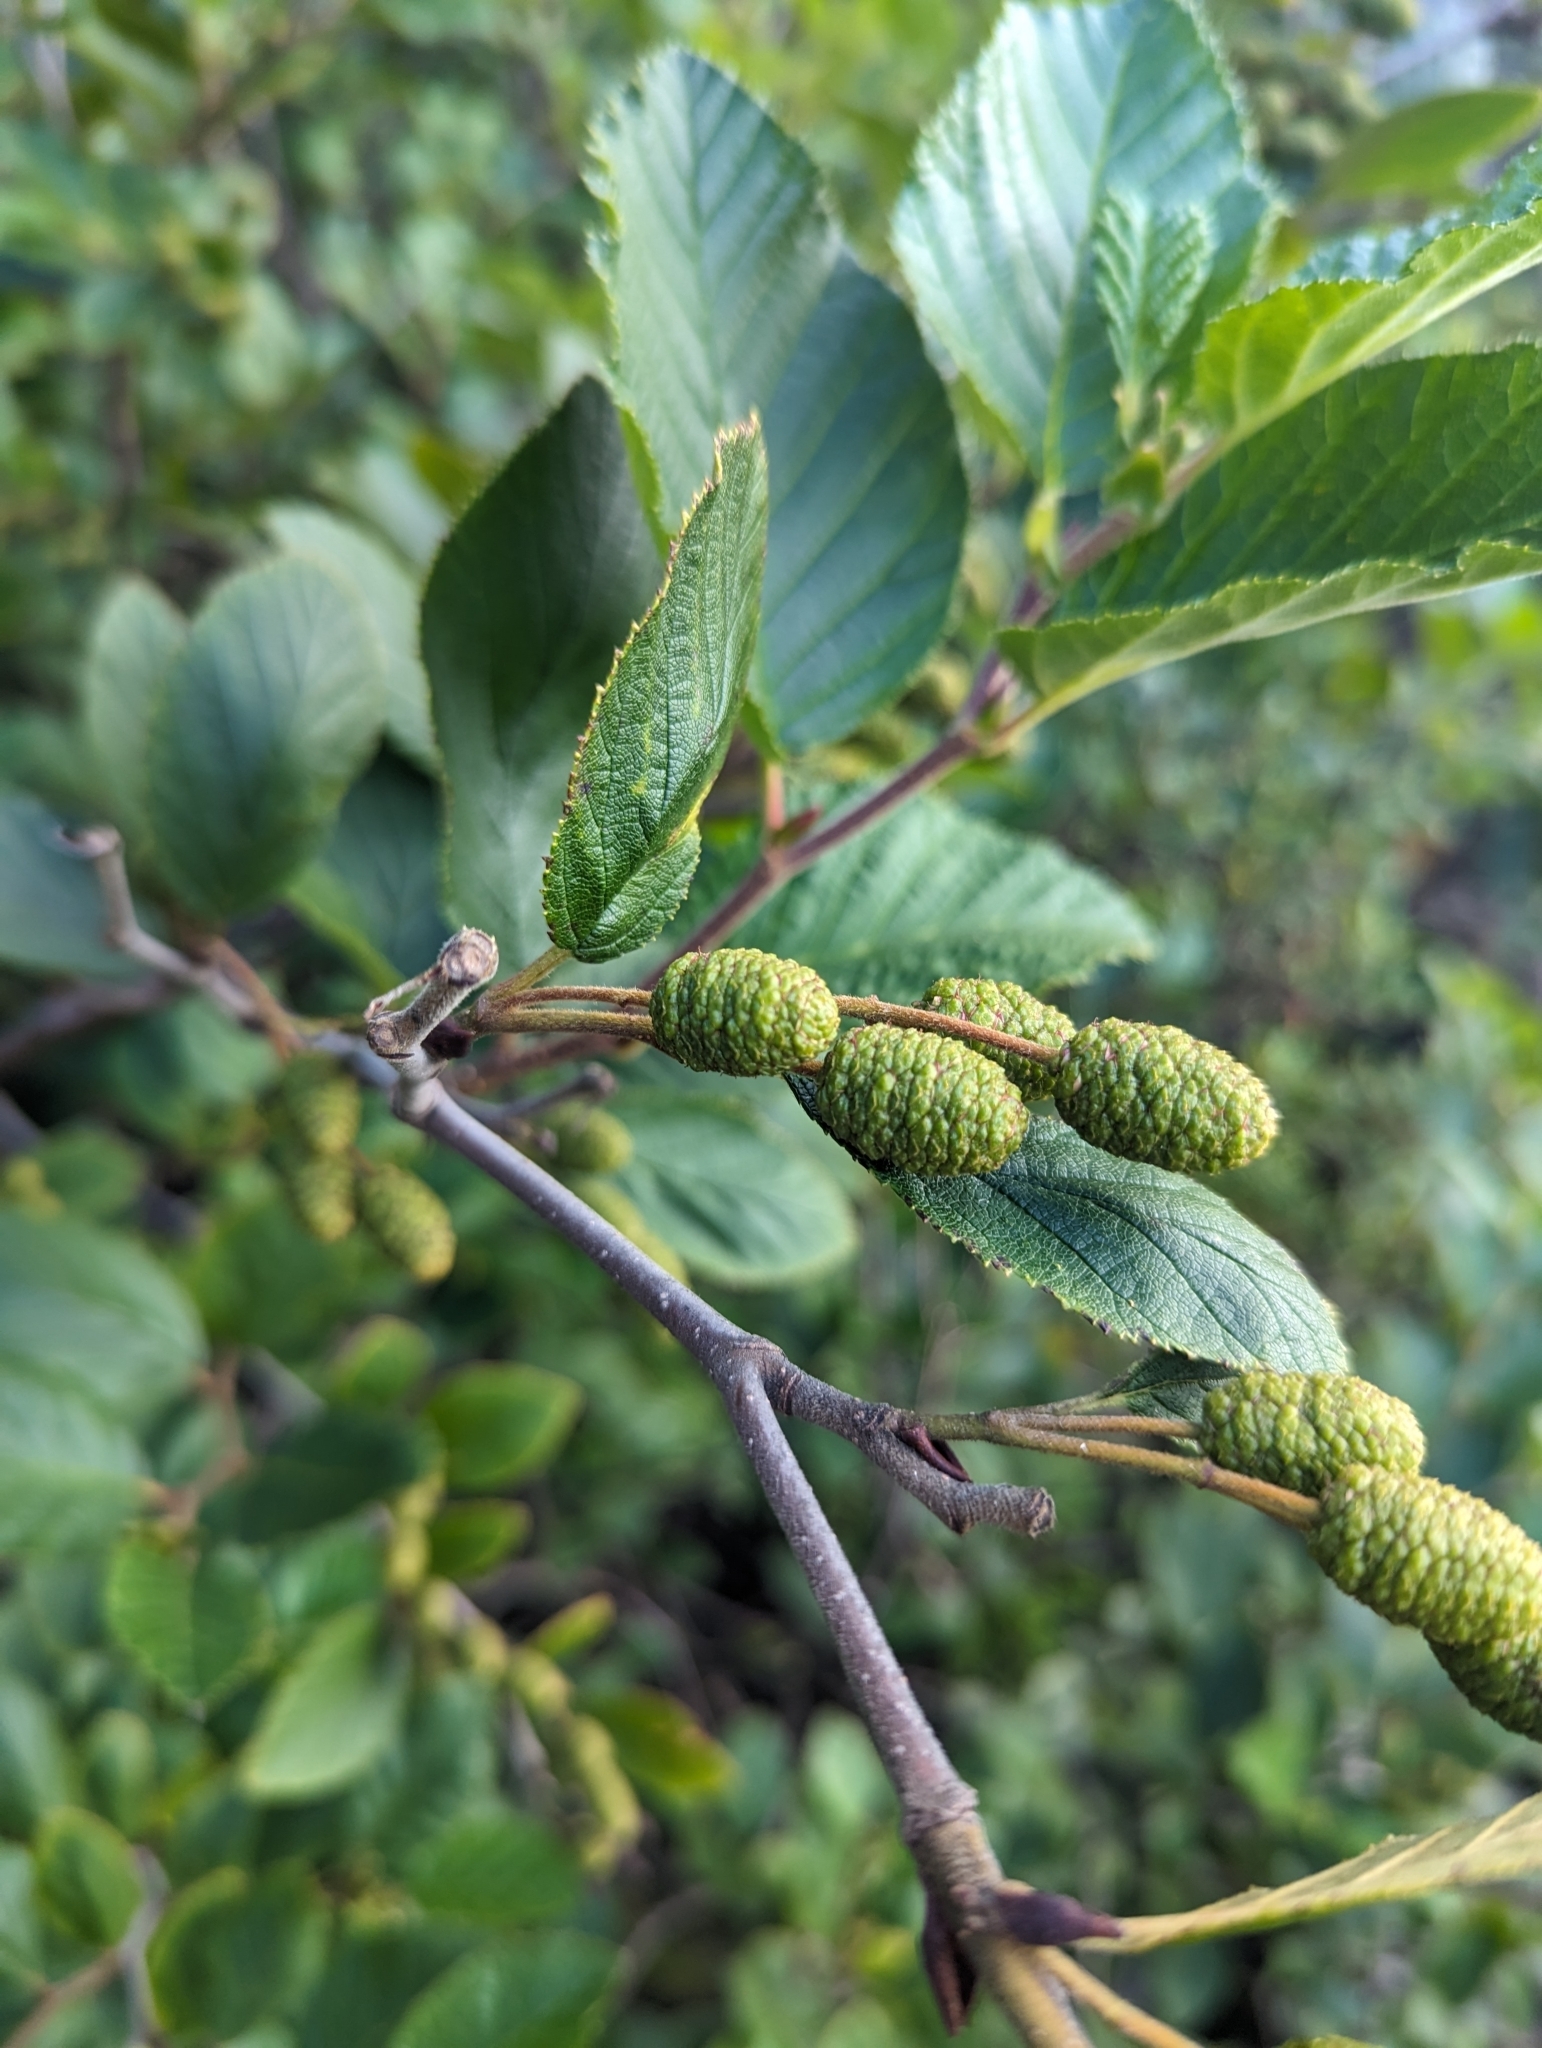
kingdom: Plantae
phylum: Tracheophyta
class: Magnoliopsida
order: Fagales
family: Betulaceae
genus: Alnus
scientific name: Alnus alnobetula
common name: Green alder
